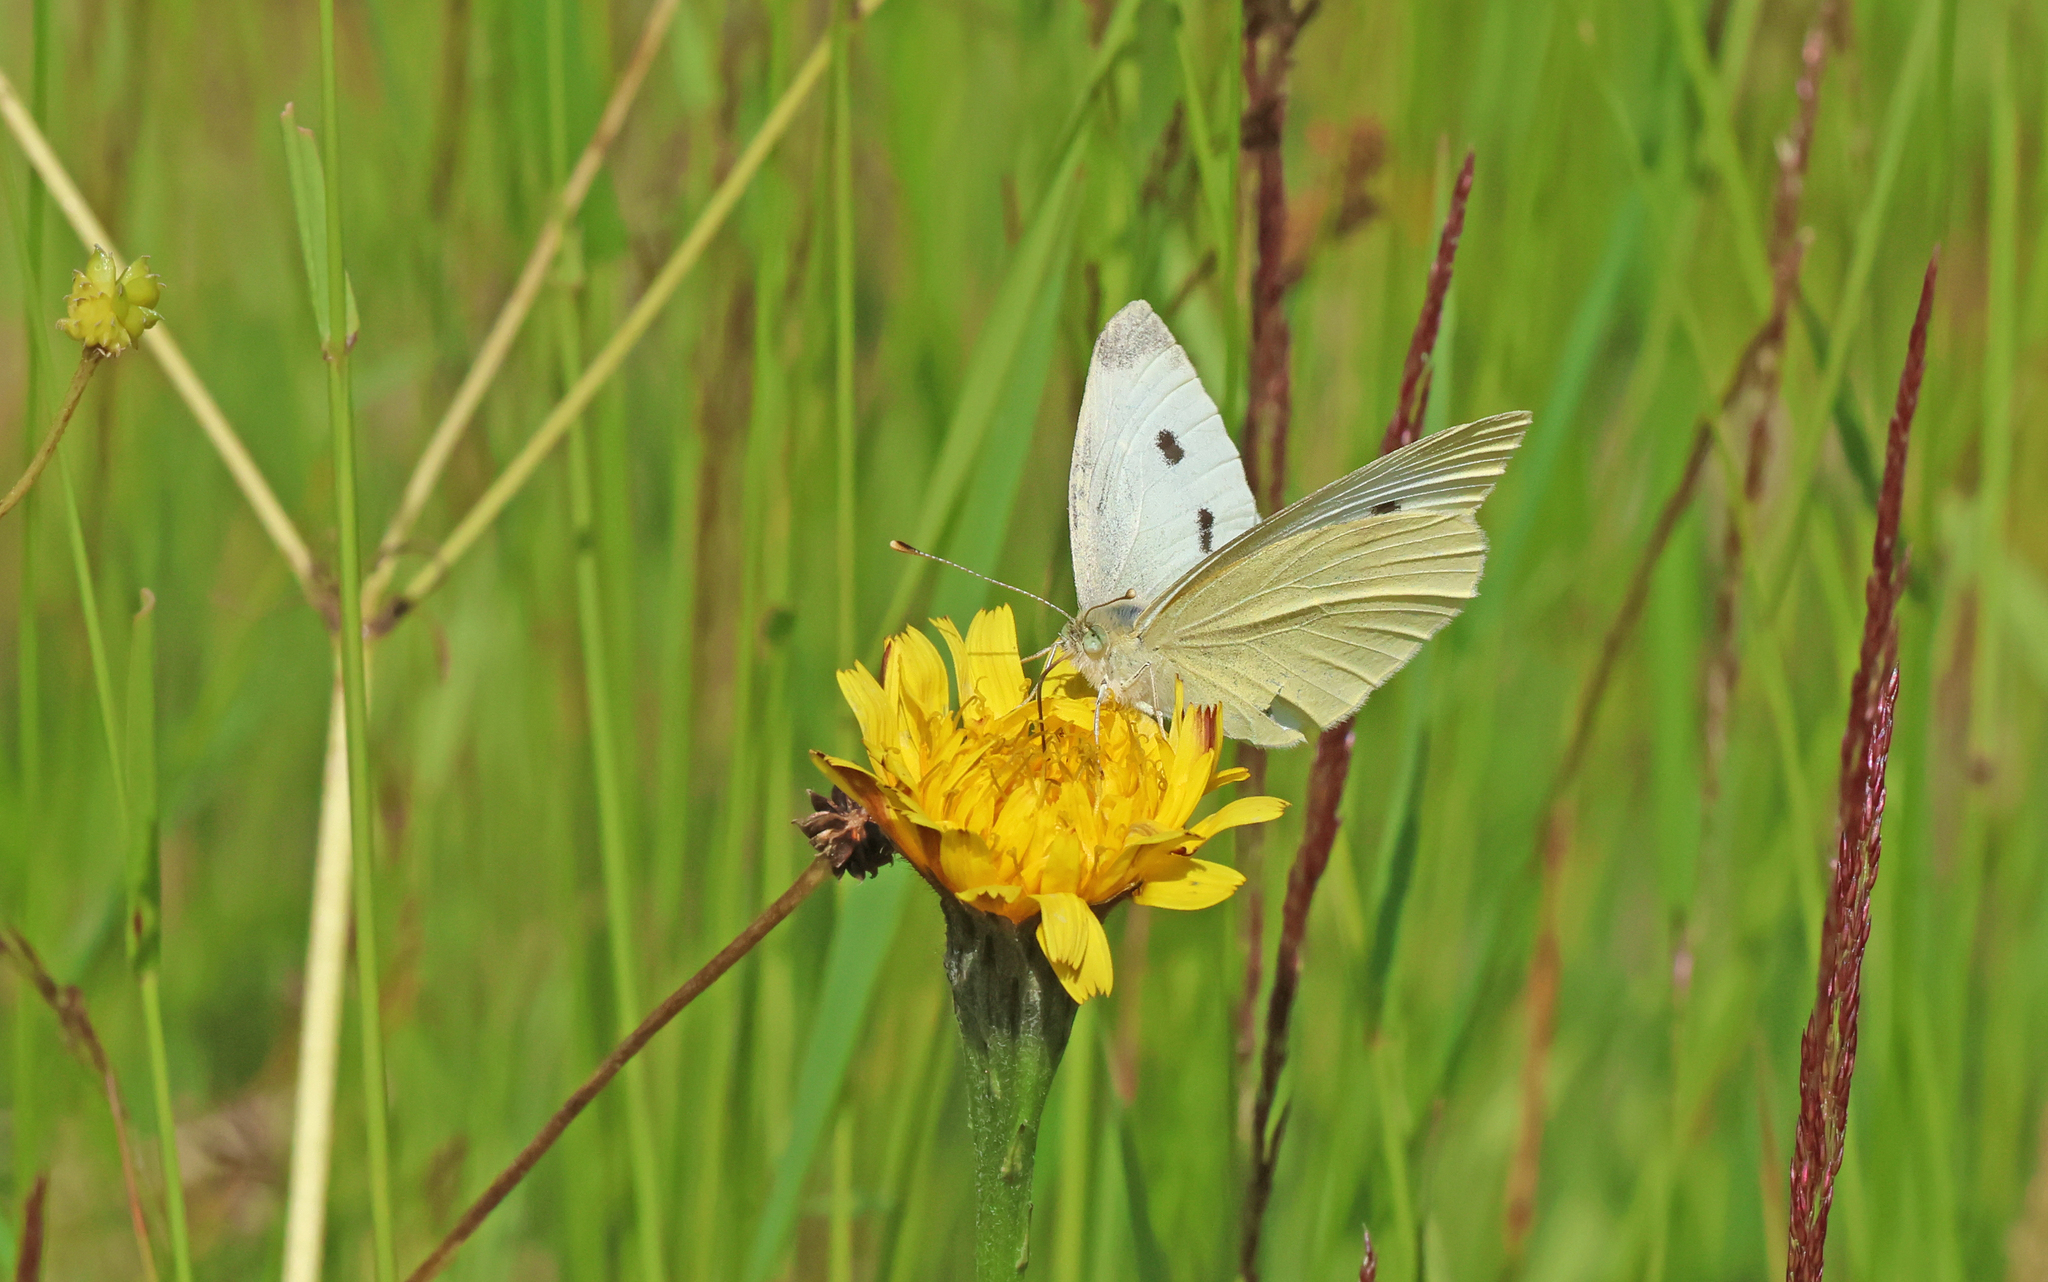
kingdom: Animalia
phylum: Arthropoda
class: Insecta
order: Lepidoptera
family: Pieridae
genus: Pieris
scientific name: Pieris rapae
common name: Small white
